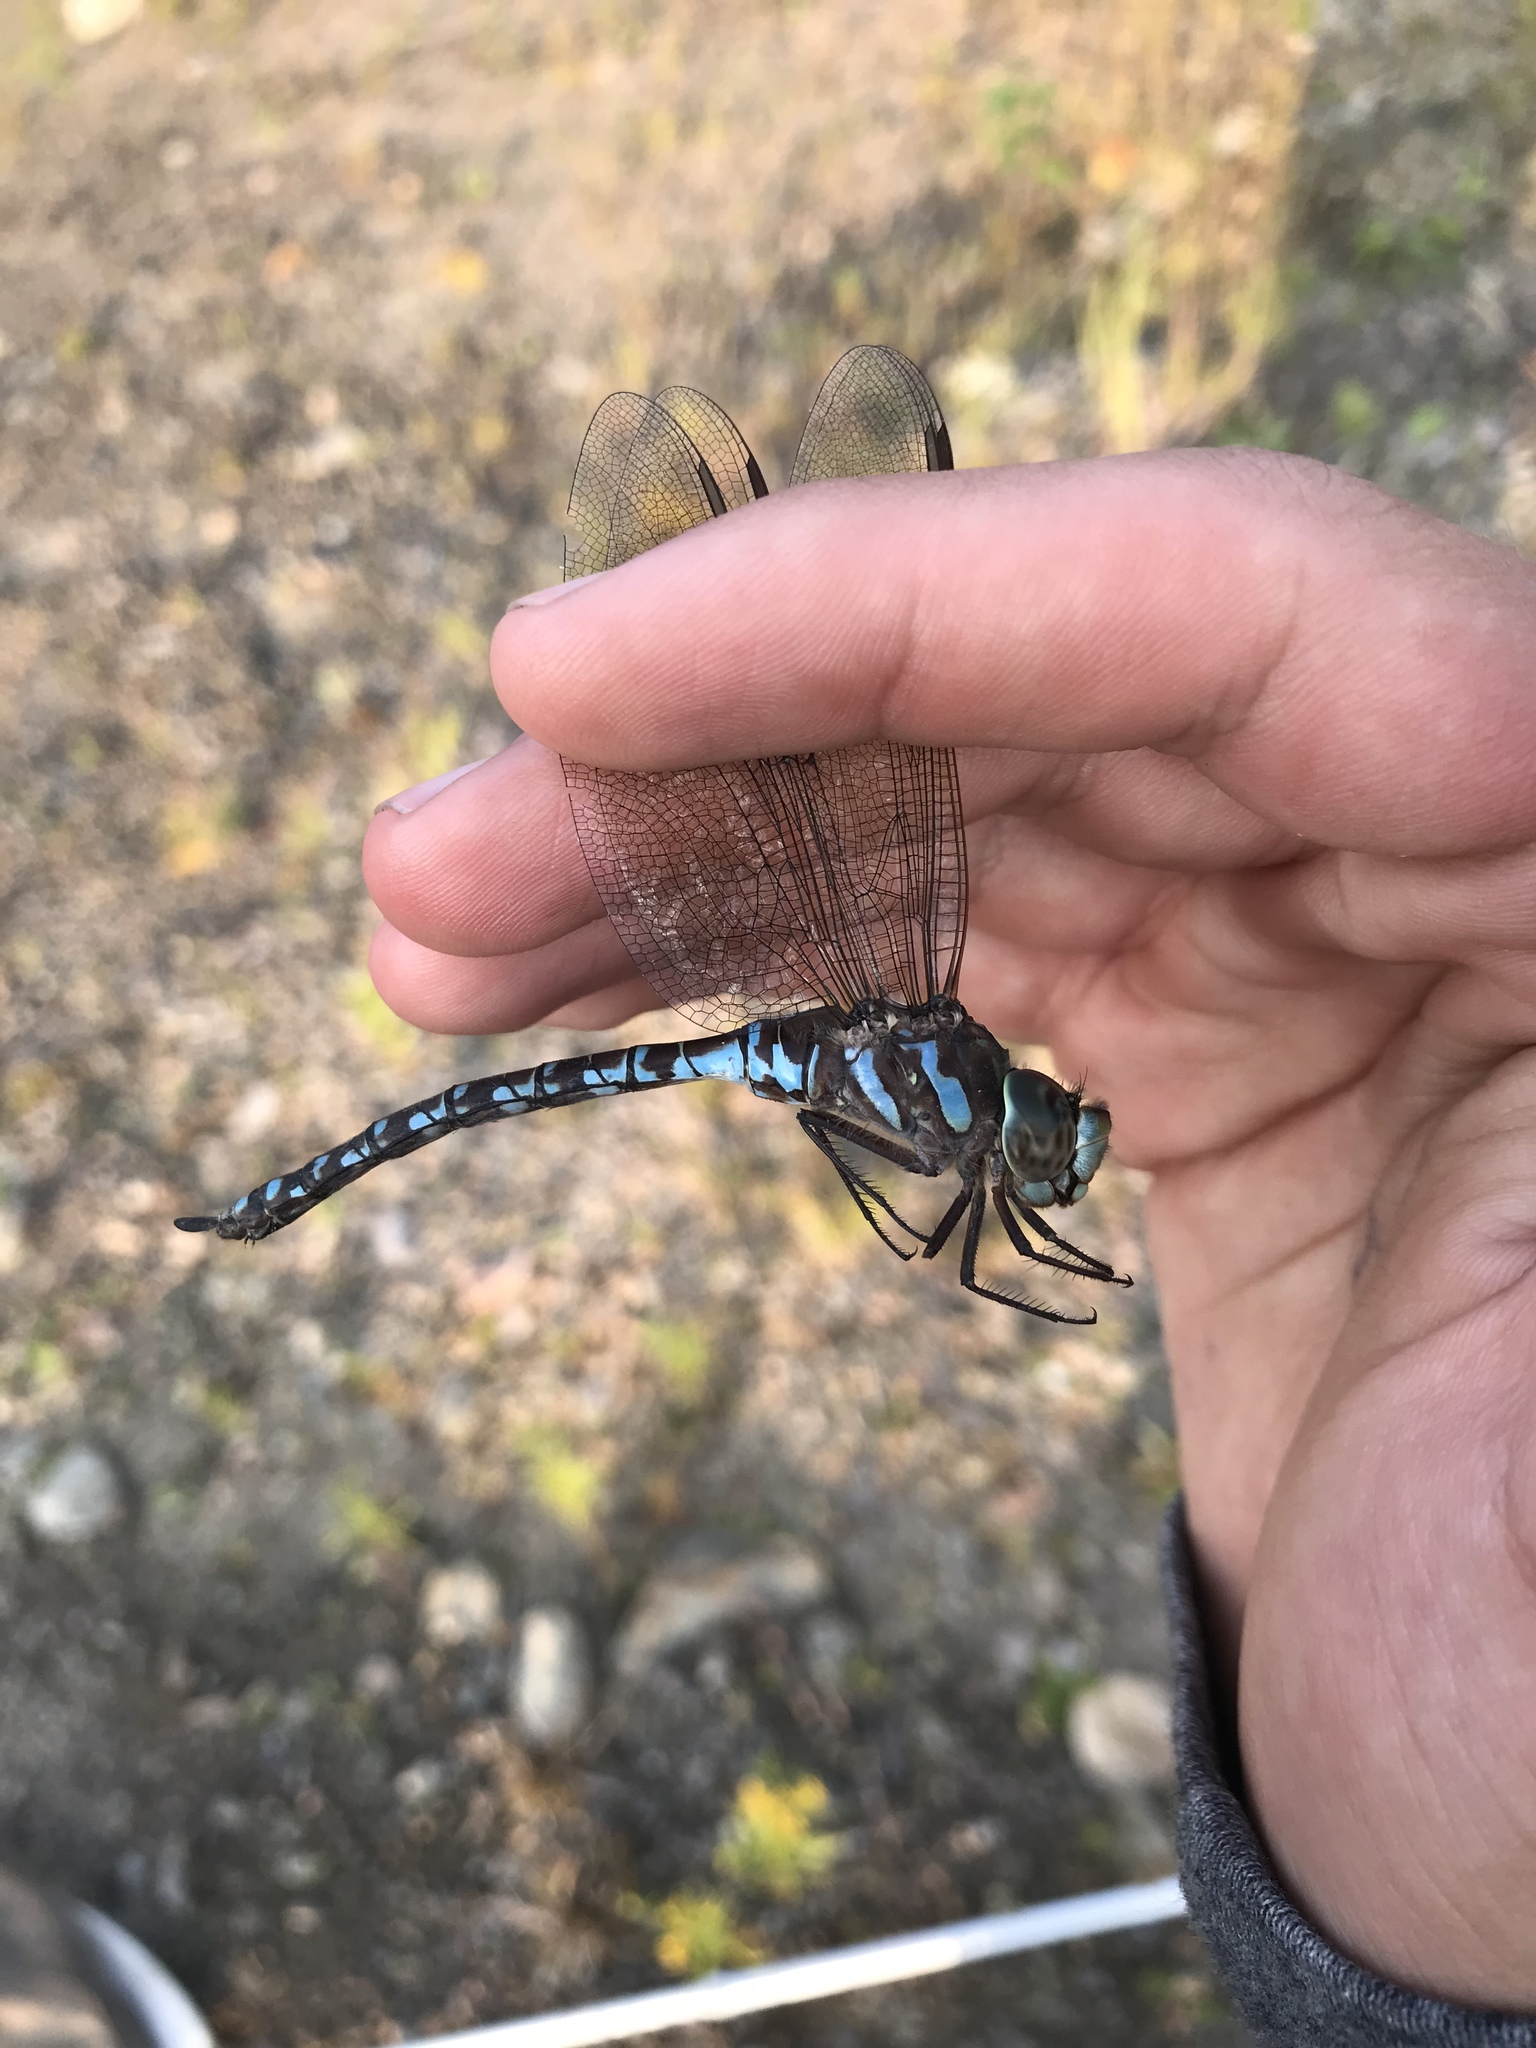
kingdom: Animalia
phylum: Arthropoda
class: Insecta
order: Odonata
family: Aeshnidae
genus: Aeshna
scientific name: Aeshna canadensis
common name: Canada darner
